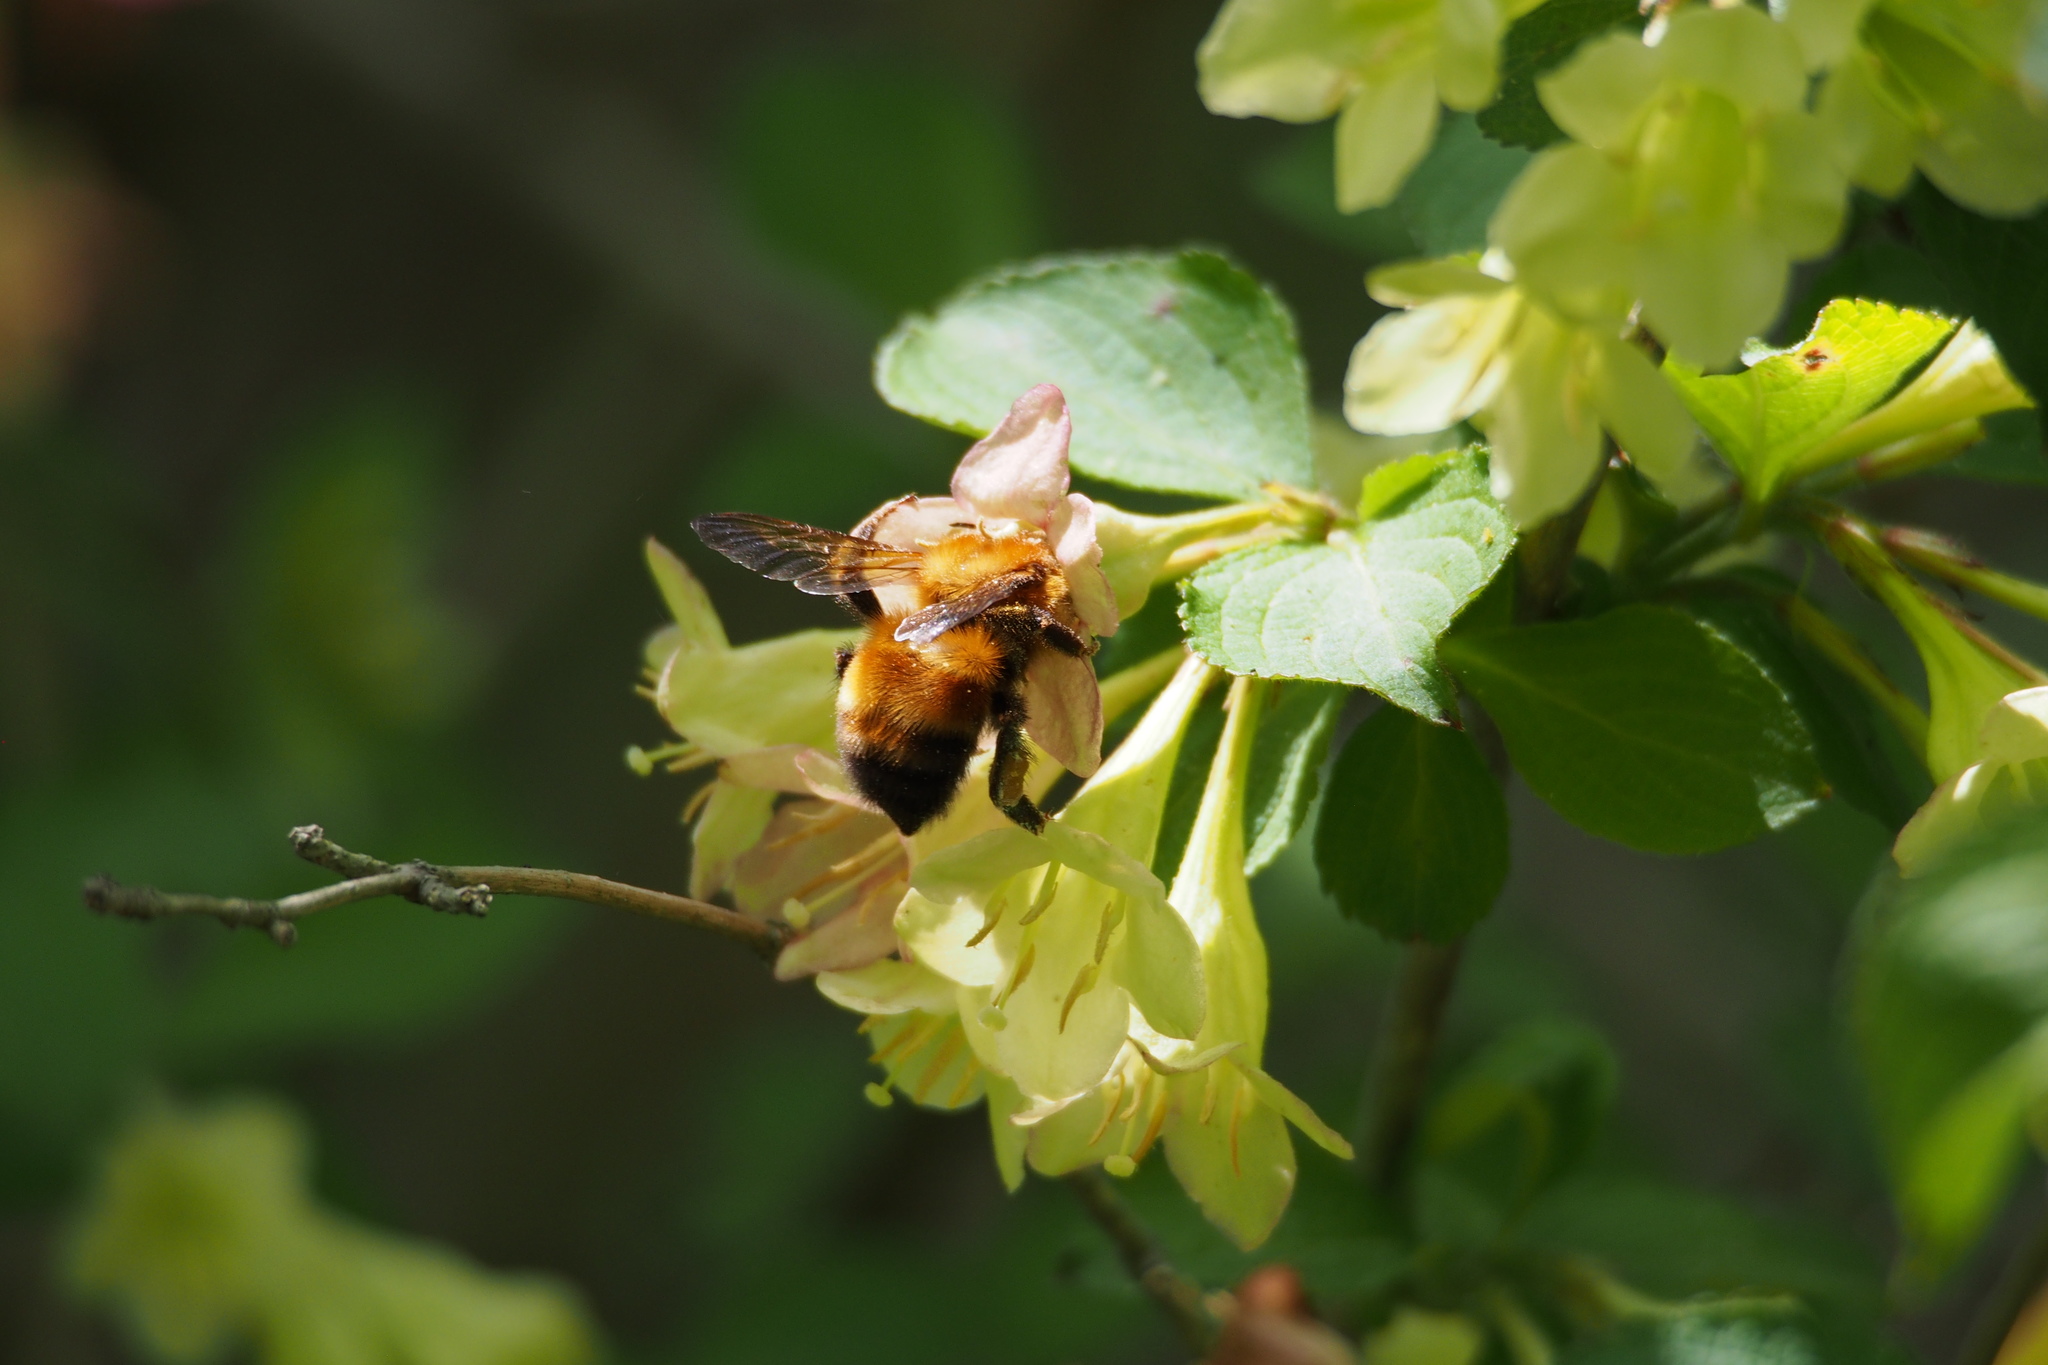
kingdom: Animalia
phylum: Arthropoda
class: Insecta
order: Hymenoptera
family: Apidae
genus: Bombus
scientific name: Bombus diversus
